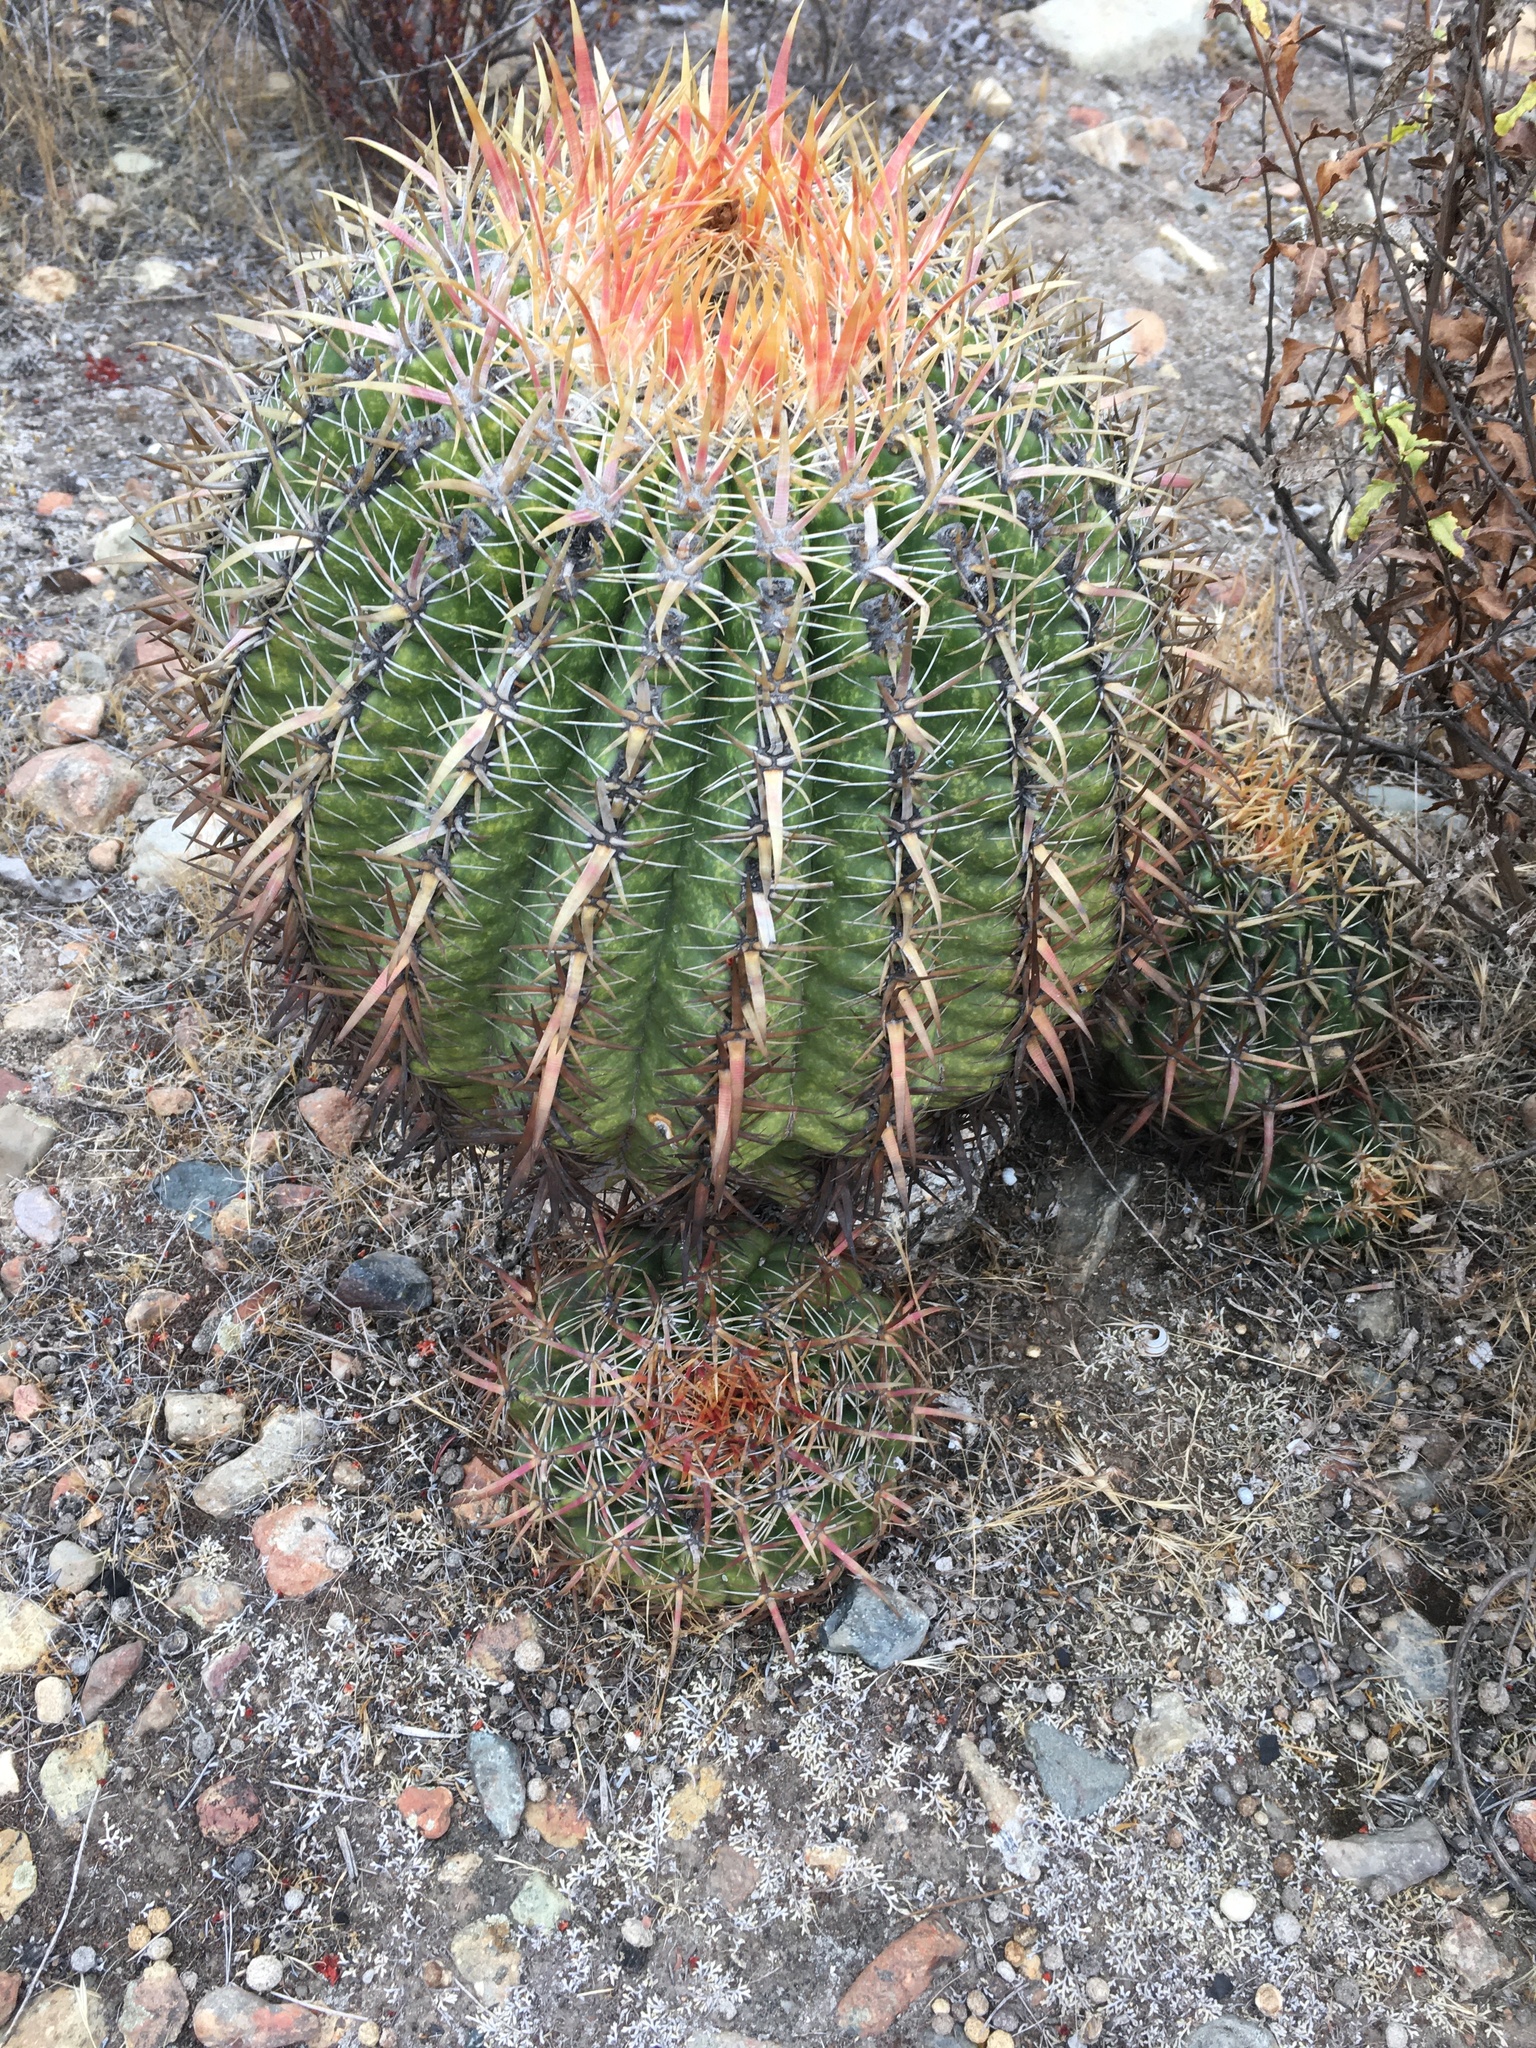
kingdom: Plantae
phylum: Tracheophyta
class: Magnoliopsida
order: Caryophyllales
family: Cactaceae
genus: Ferocactus
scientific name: Ferocactus viridescens
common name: San diego barrel cactus
